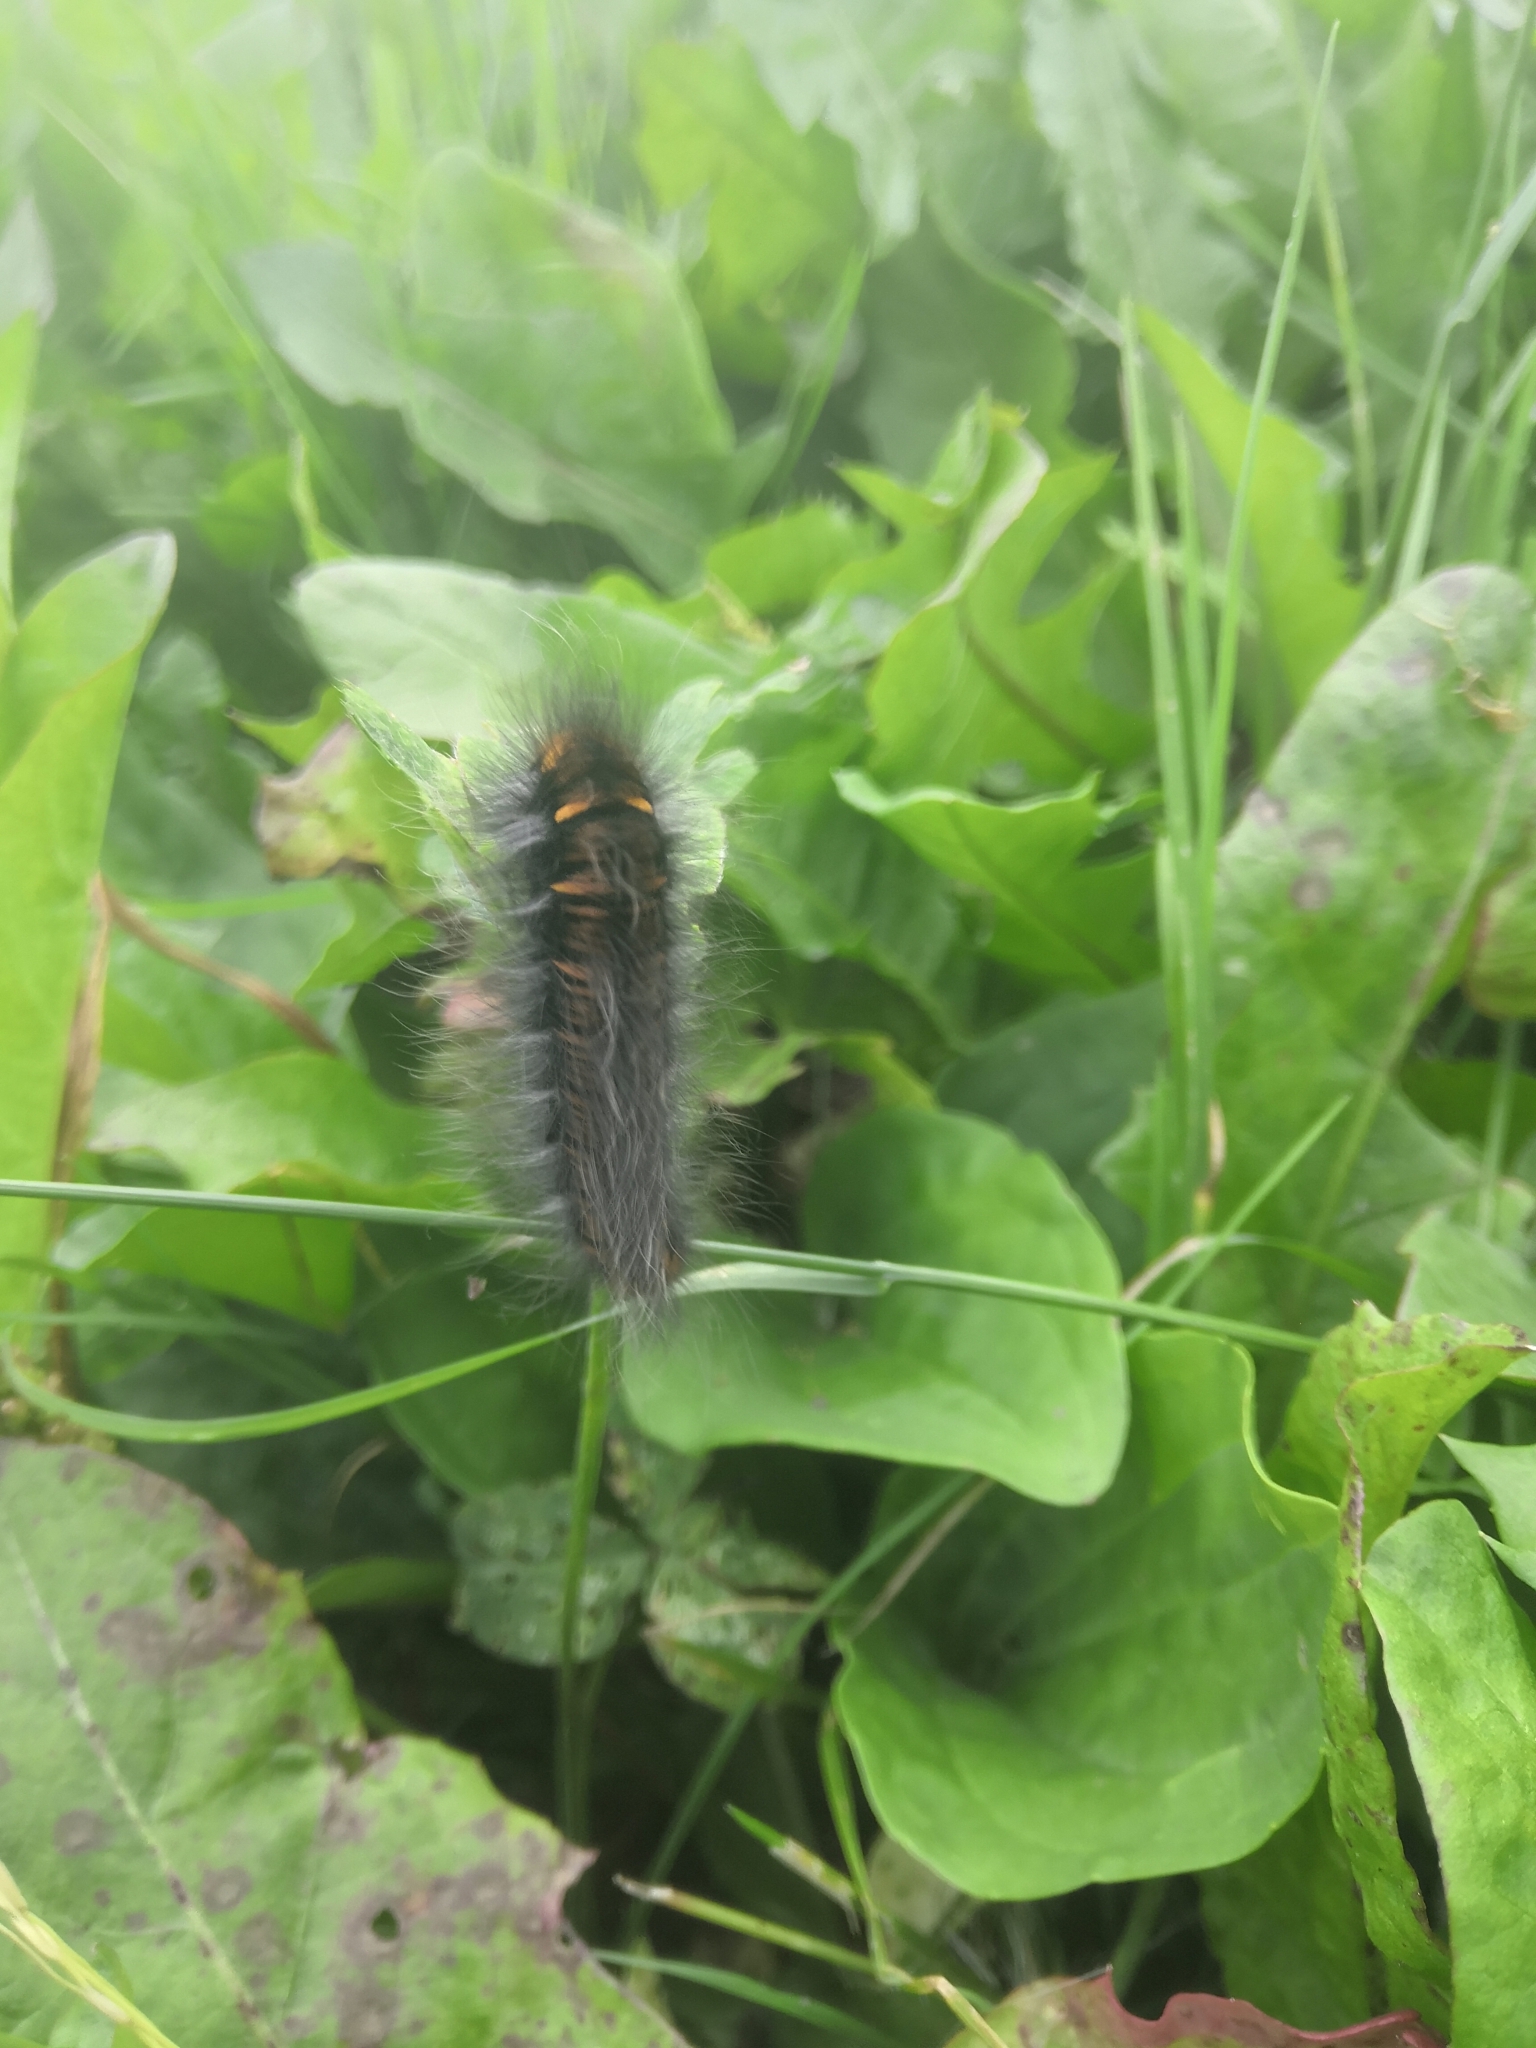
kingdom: Animalia
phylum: Arthropoda
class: Insecta
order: Lepidoptera
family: Lasiocampidae
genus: Macrothylacia
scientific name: Macrothylacia rubi
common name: Fox moth
